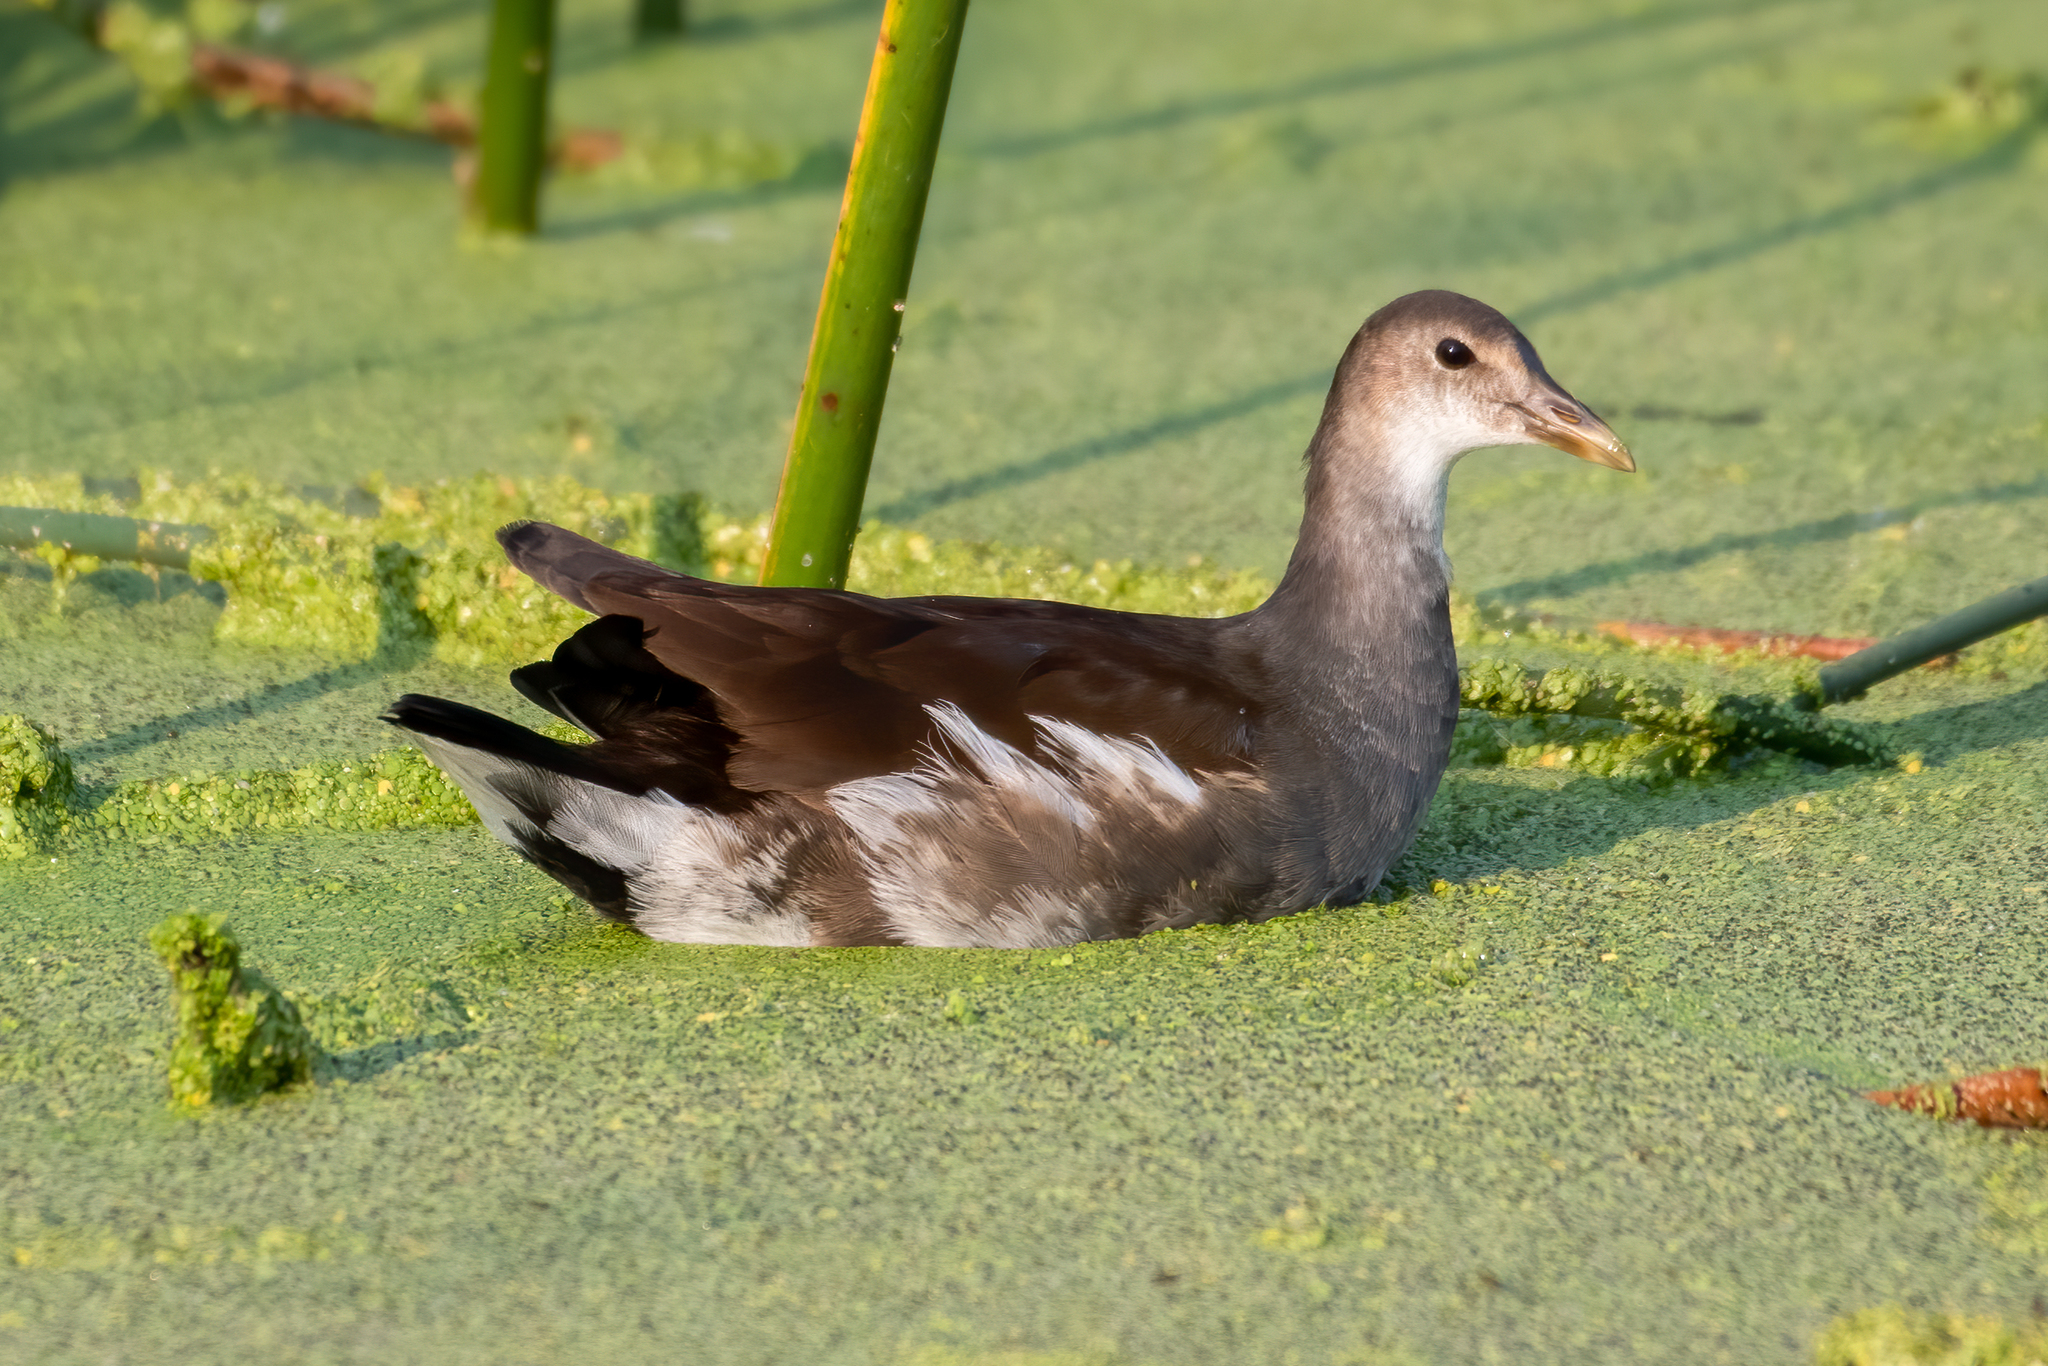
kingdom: Animalia
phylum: Chordata
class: Aves
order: Gruiformes
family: Rallidae
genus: Gallinula
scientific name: Gallinula chloropus
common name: Common moorhen
